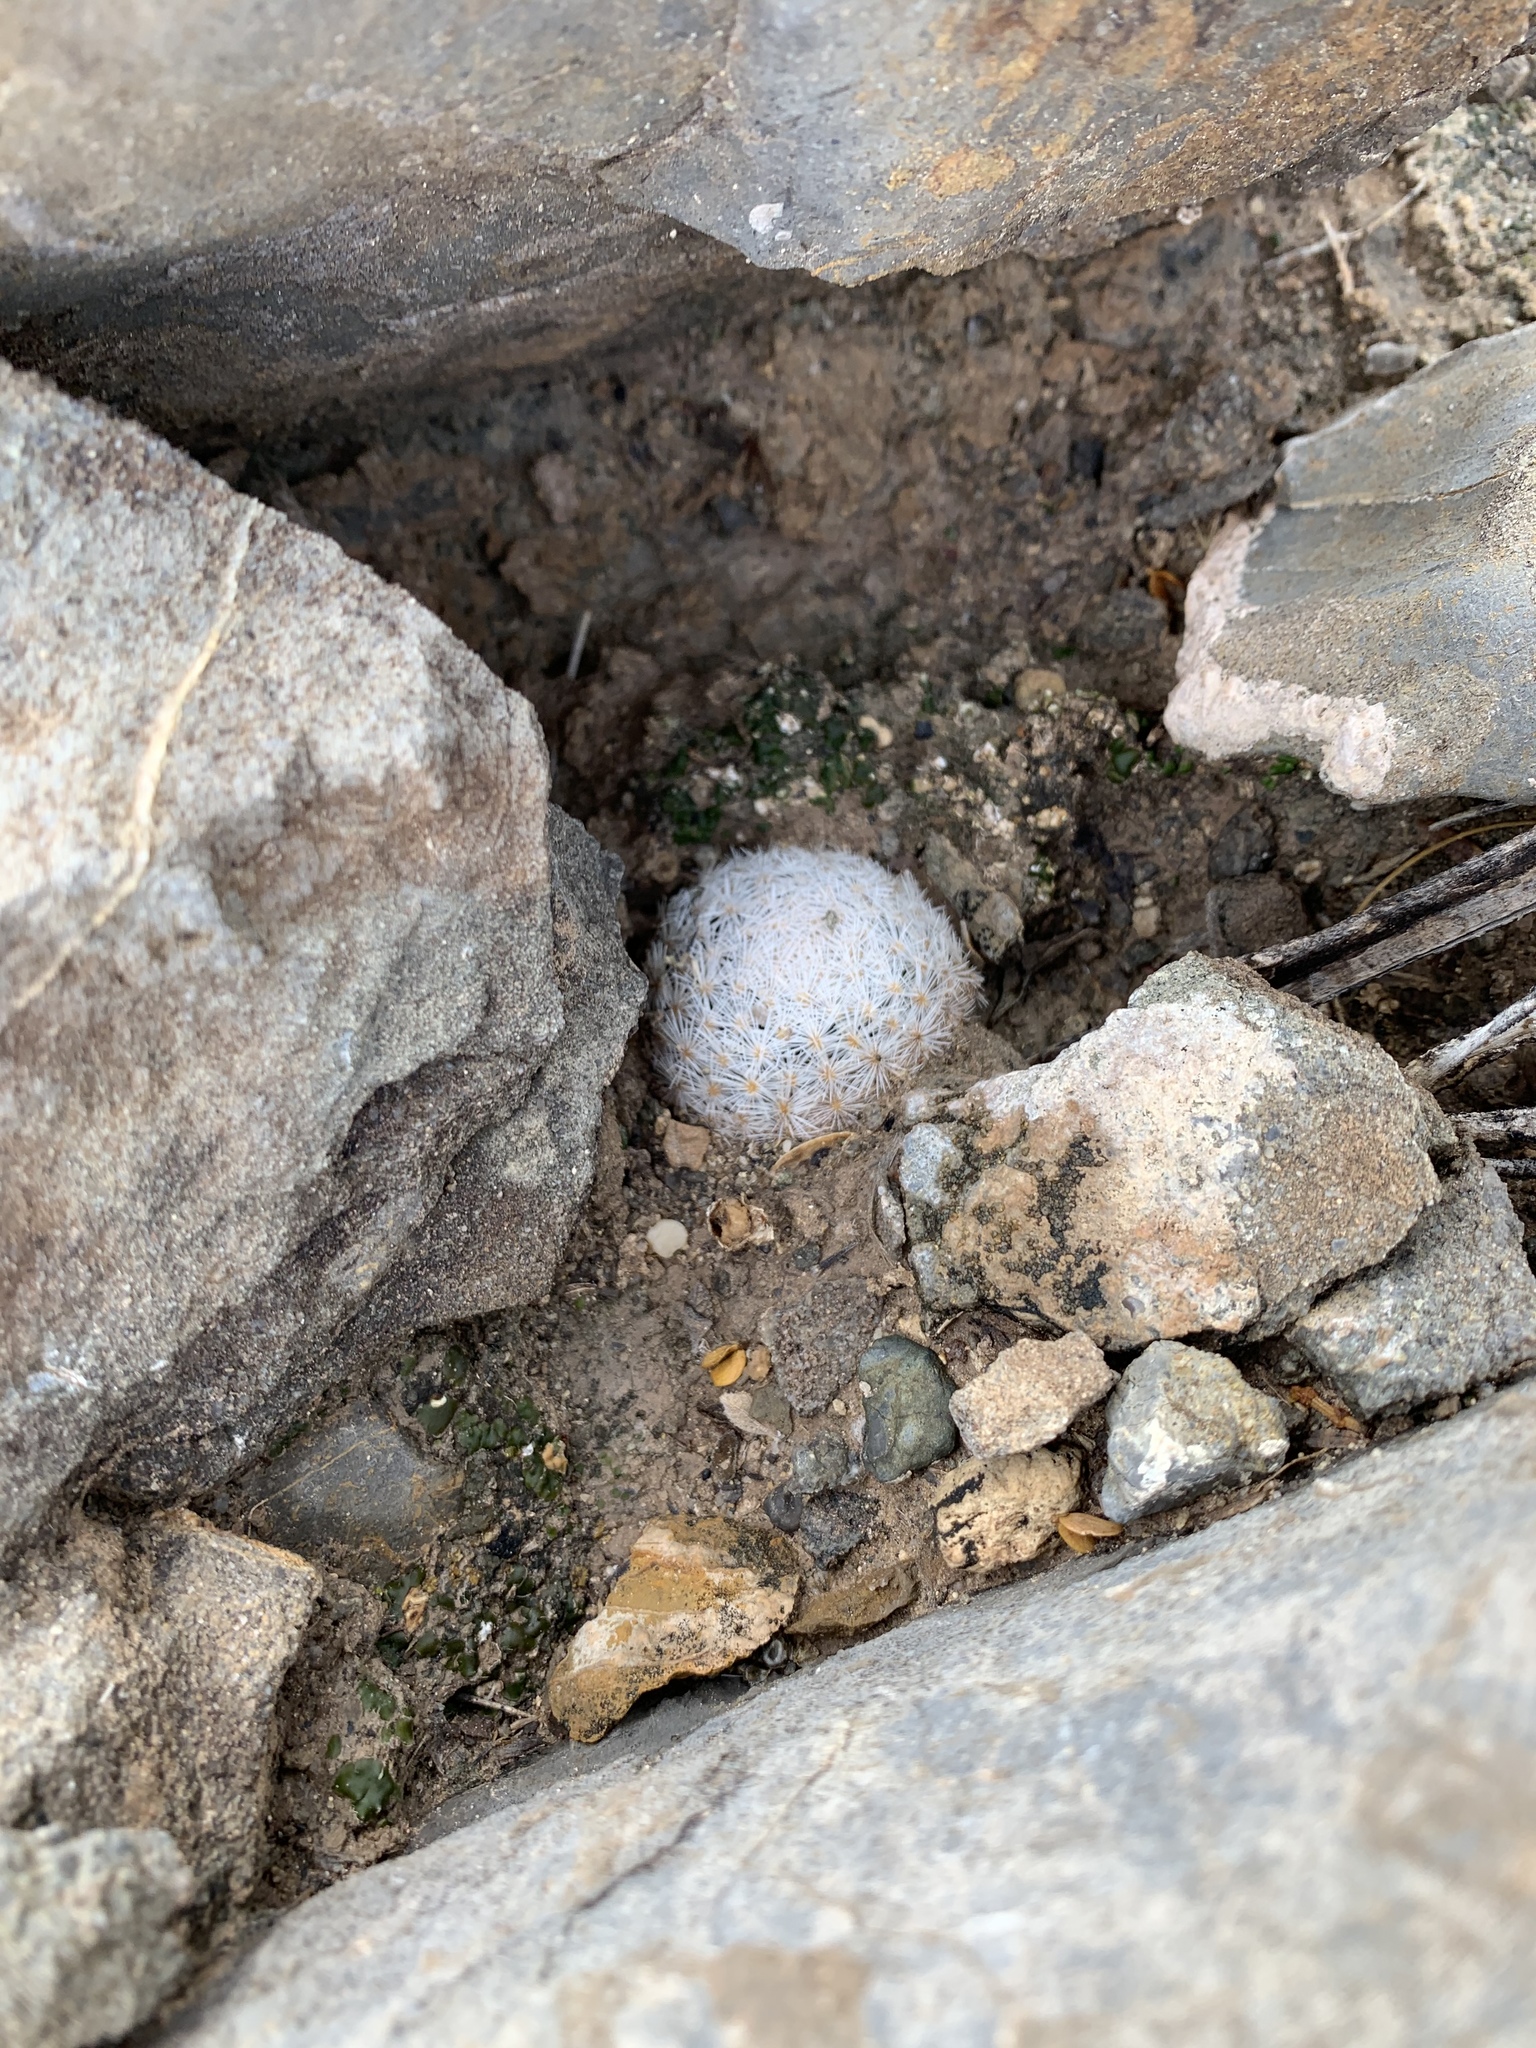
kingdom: Plantae
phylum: Tracheophyta
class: Magnoliopsida
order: Caryophyllales
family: Cactaceae
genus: Mammillaria
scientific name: Mammillaria lasiacantha
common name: Lace-spine nipple cactus
